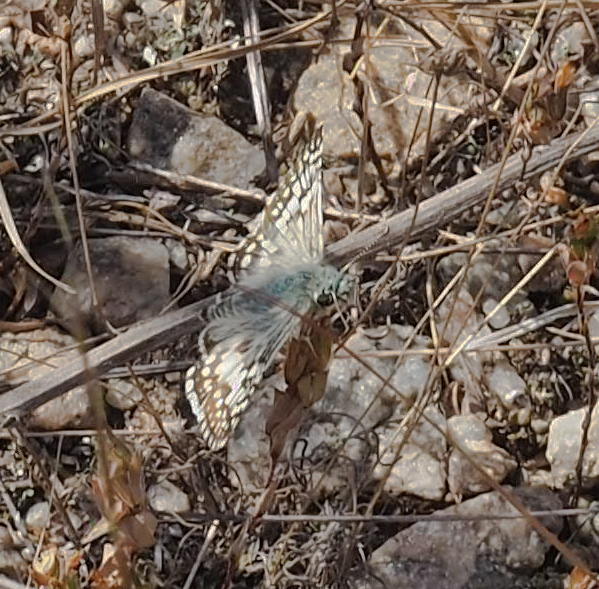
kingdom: Animalia
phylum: Arthropoda
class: Insecta
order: Lepidoptera
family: Hesperiidae
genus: Burnsius
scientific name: Burnsius communis
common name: Common checkered-skipper
